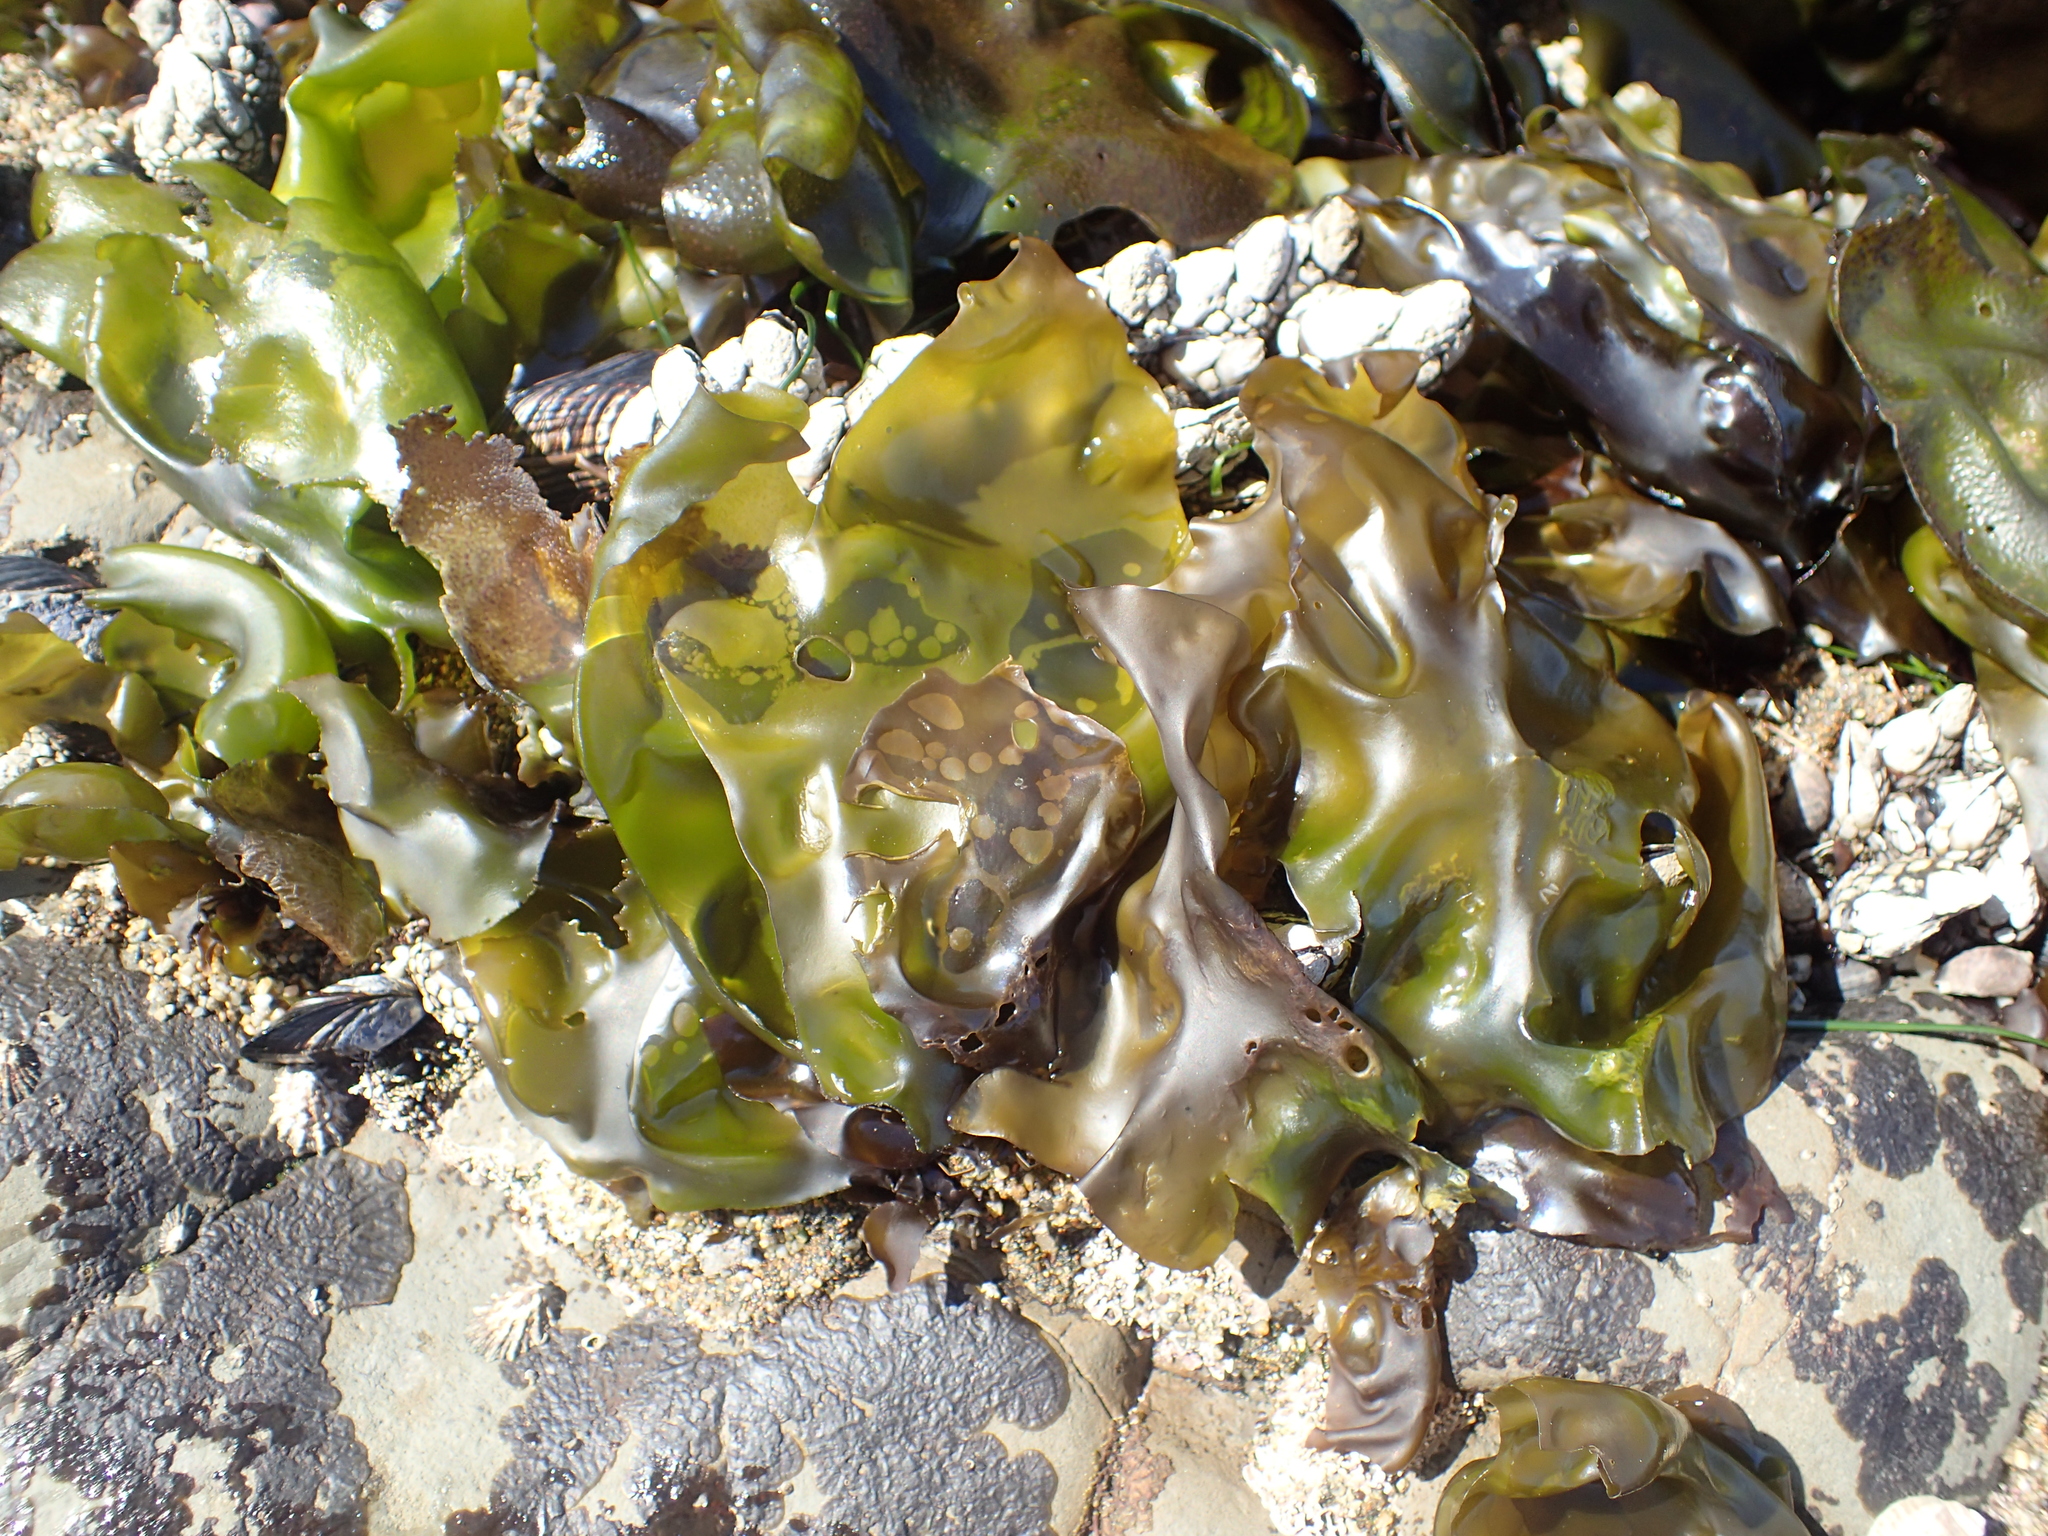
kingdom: Plantae
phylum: Rhodophyta
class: Florideophyceae
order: Gigartinales
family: Gigartinaceae
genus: Mazzaella
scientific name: Mazzaella flaccida
